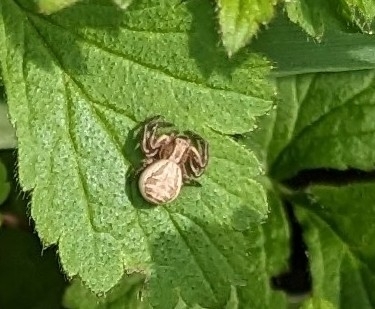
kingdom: Animalia
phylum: Arthropoda
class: Arachnida
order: Araneae
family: Thomisidae
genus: Xysticus
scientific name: Xysticus
